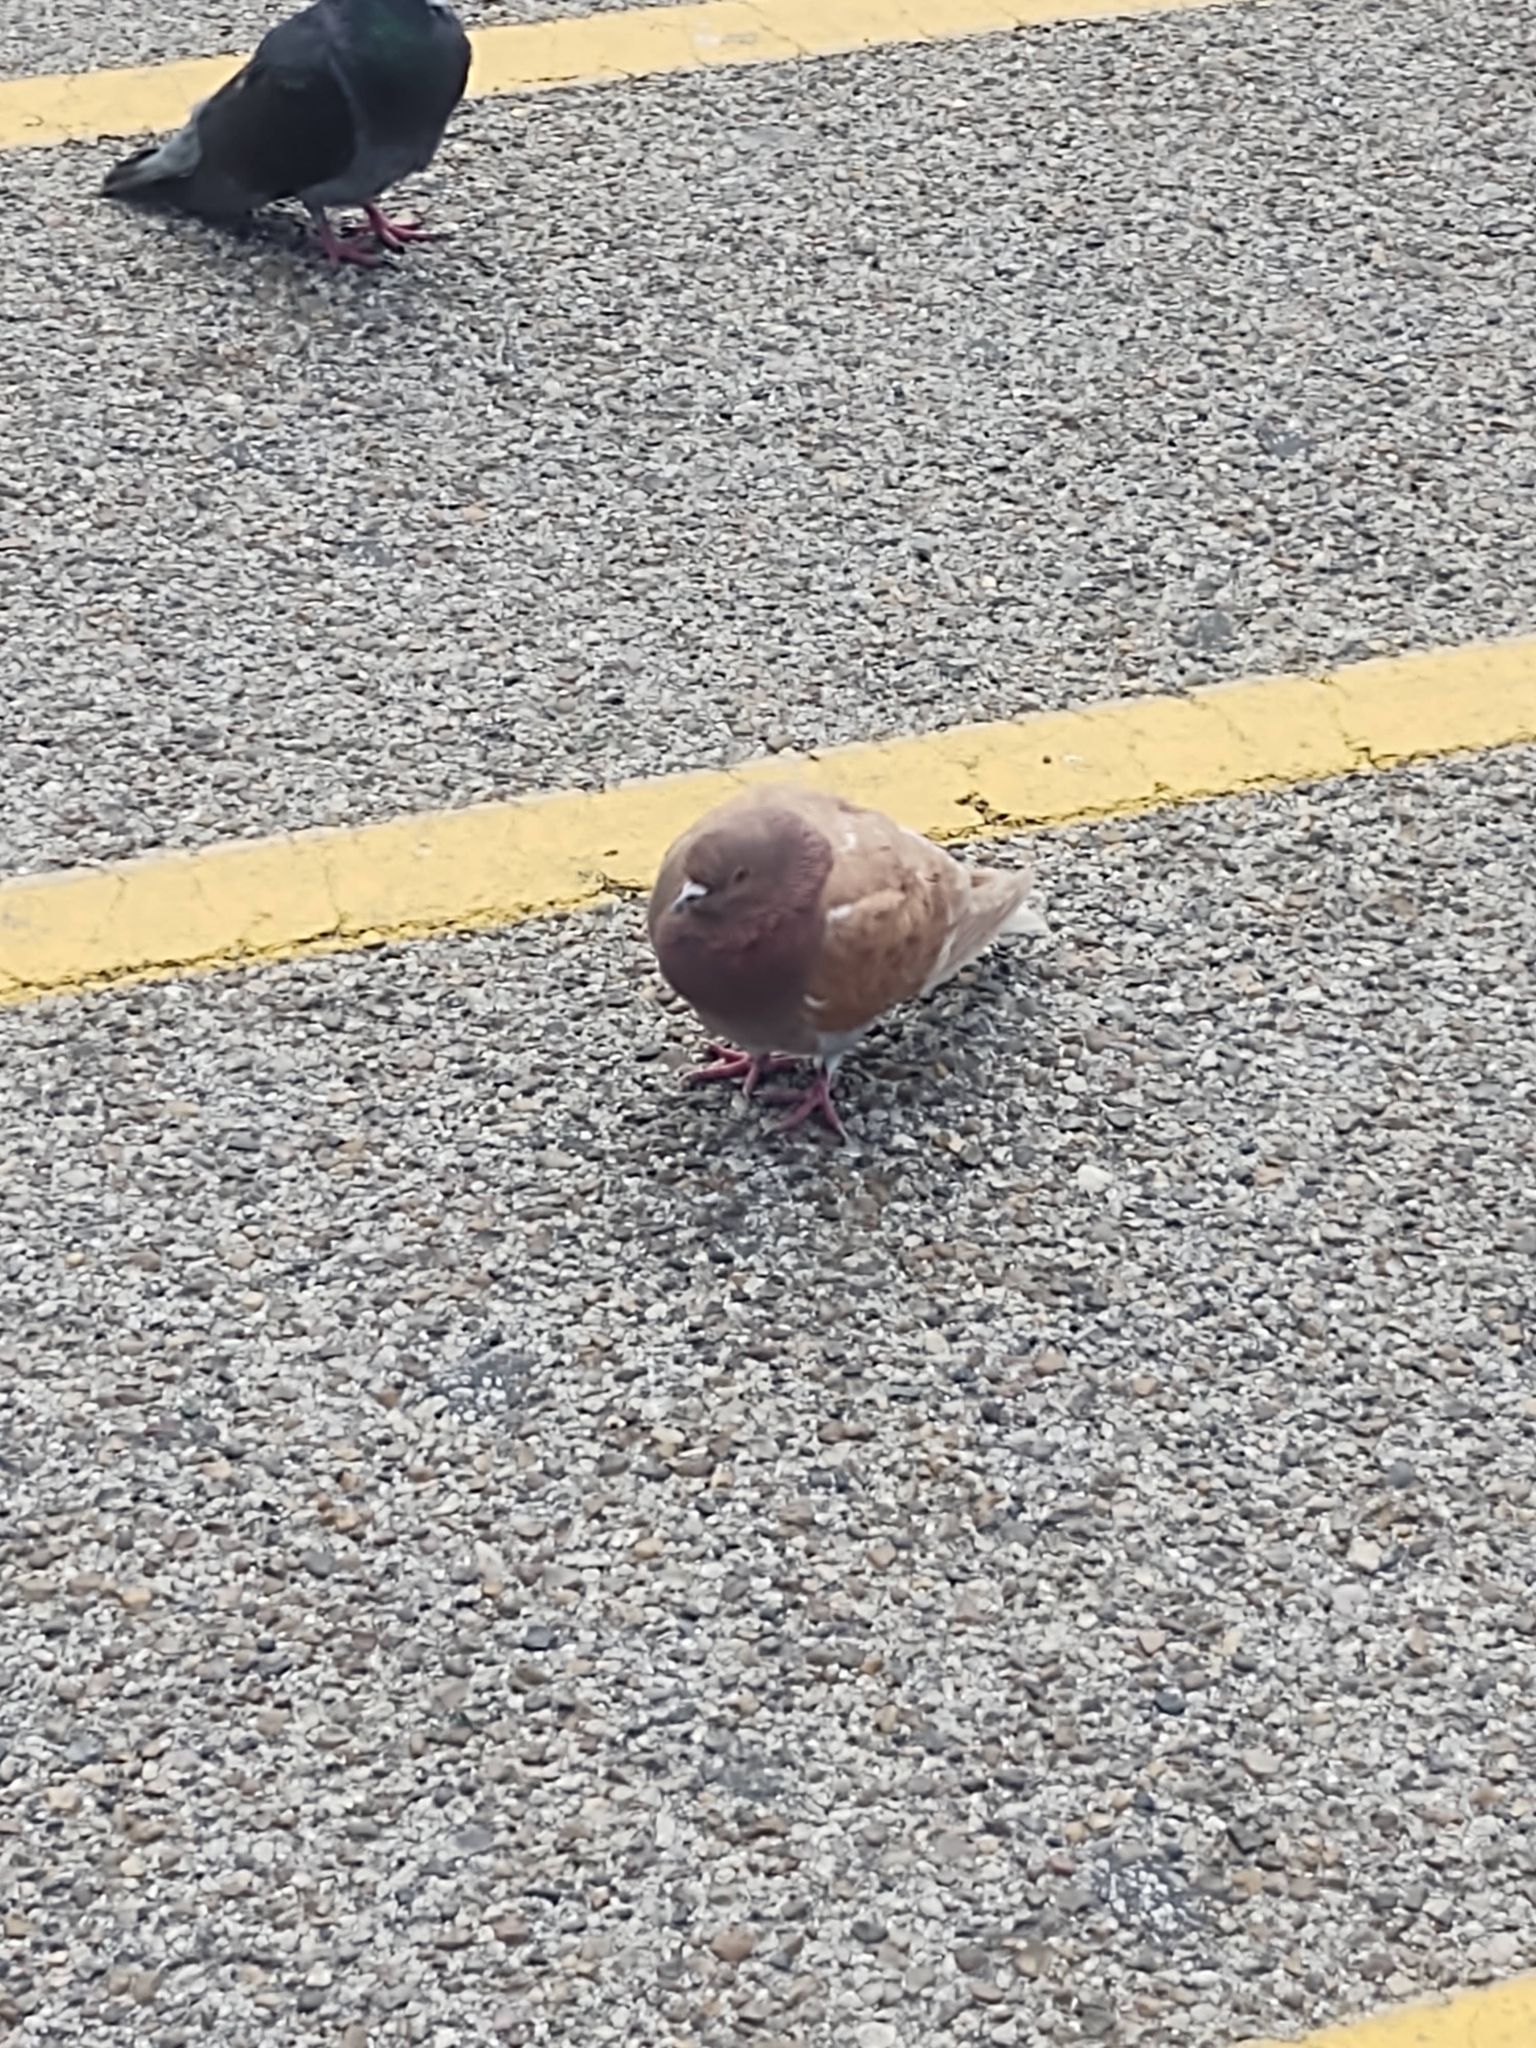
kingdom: Animalia
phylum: Chordata
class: Aves
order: Columbiformes
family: Columbidae
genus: Columba
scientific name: Columba livia
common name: Rock pigeon
